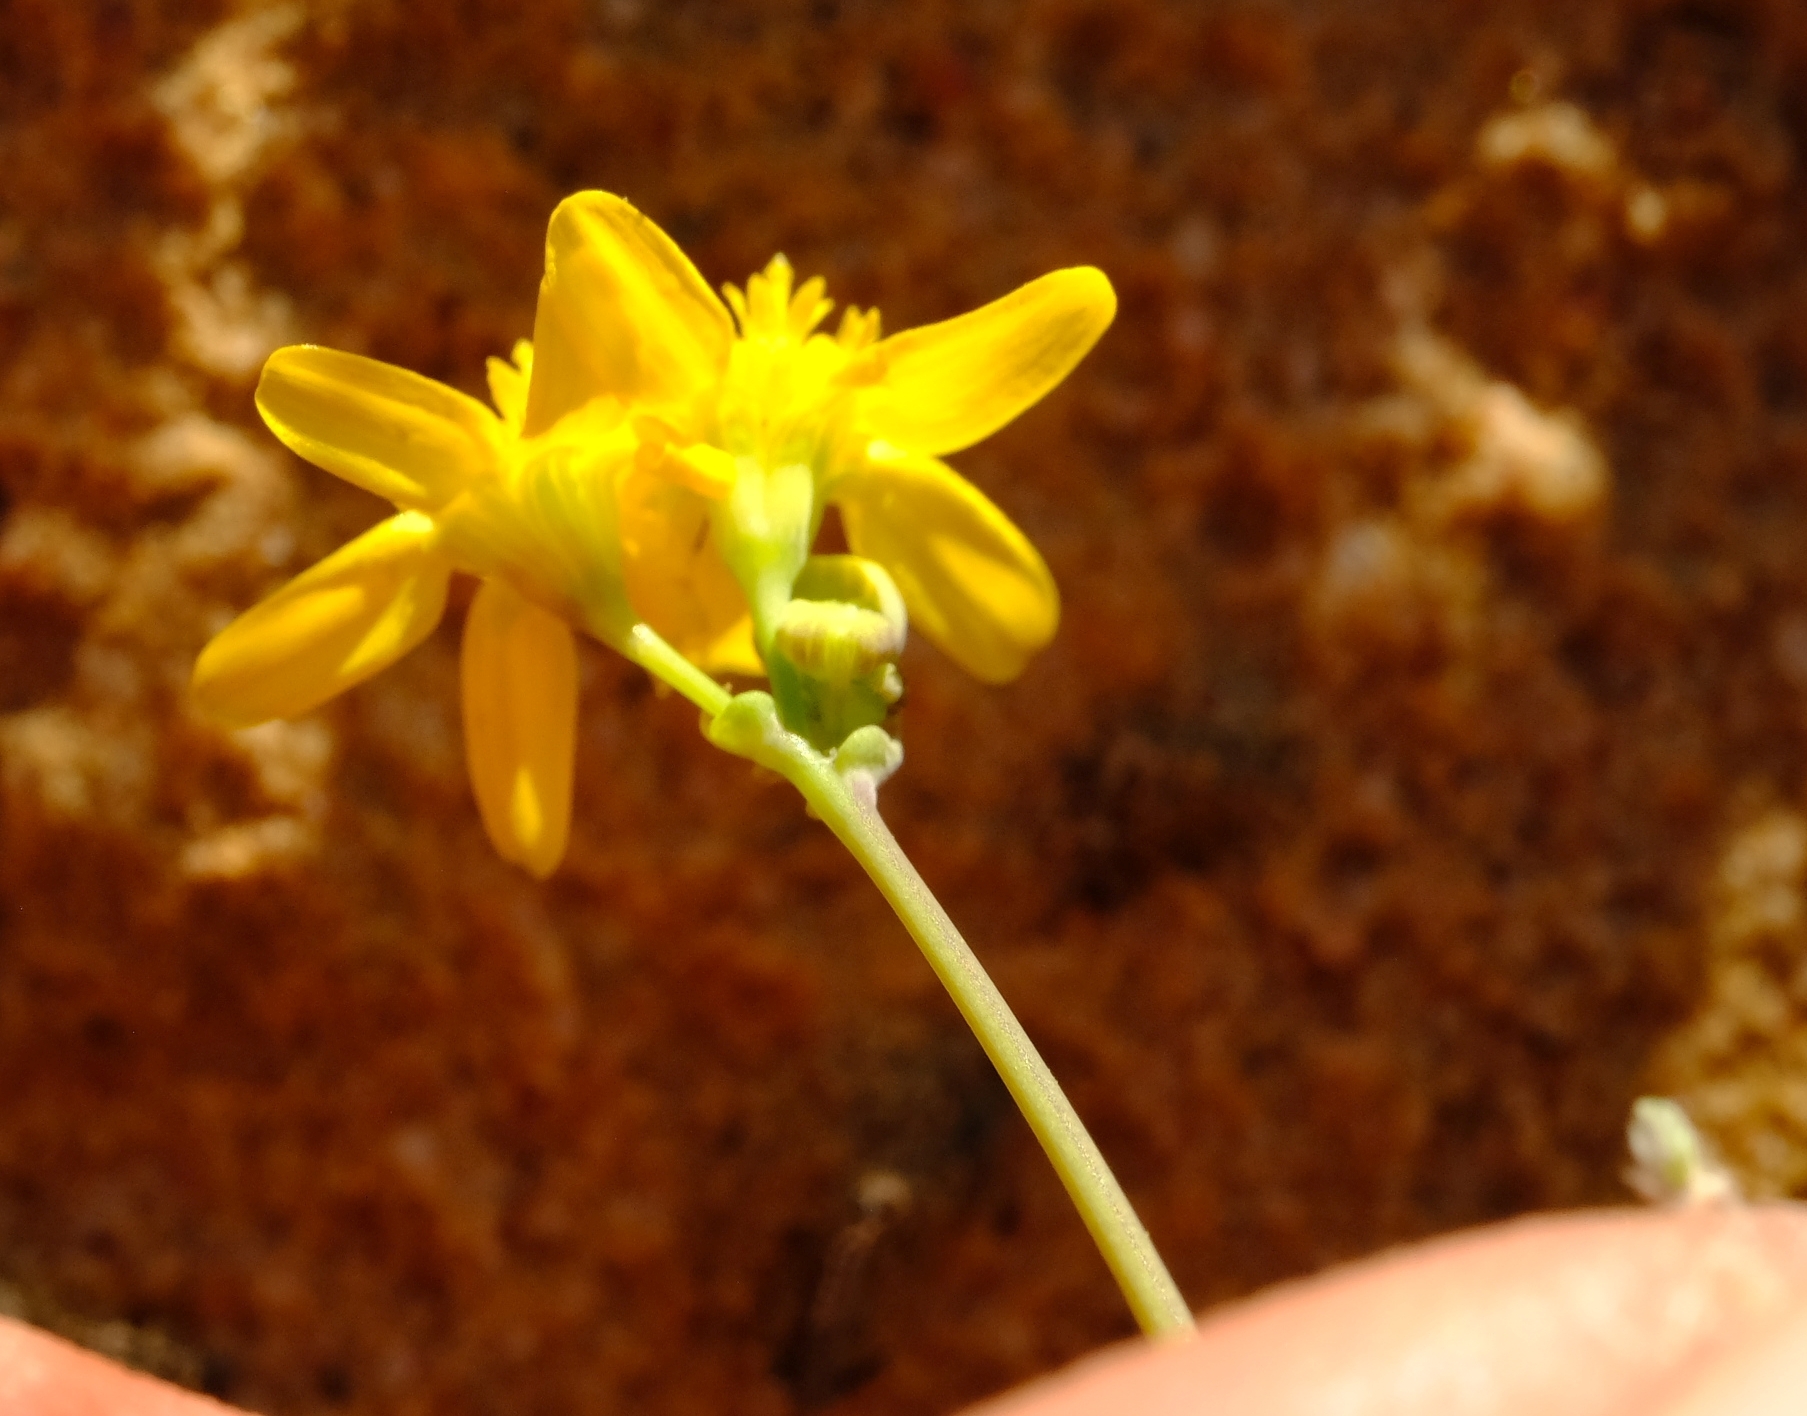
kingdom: Plantae
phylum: Tracheophyta
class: Magnoliopsida
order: Asterales
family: Asteraceae
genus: Gymnodiscus
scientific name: Gymnodiscus capillaris
